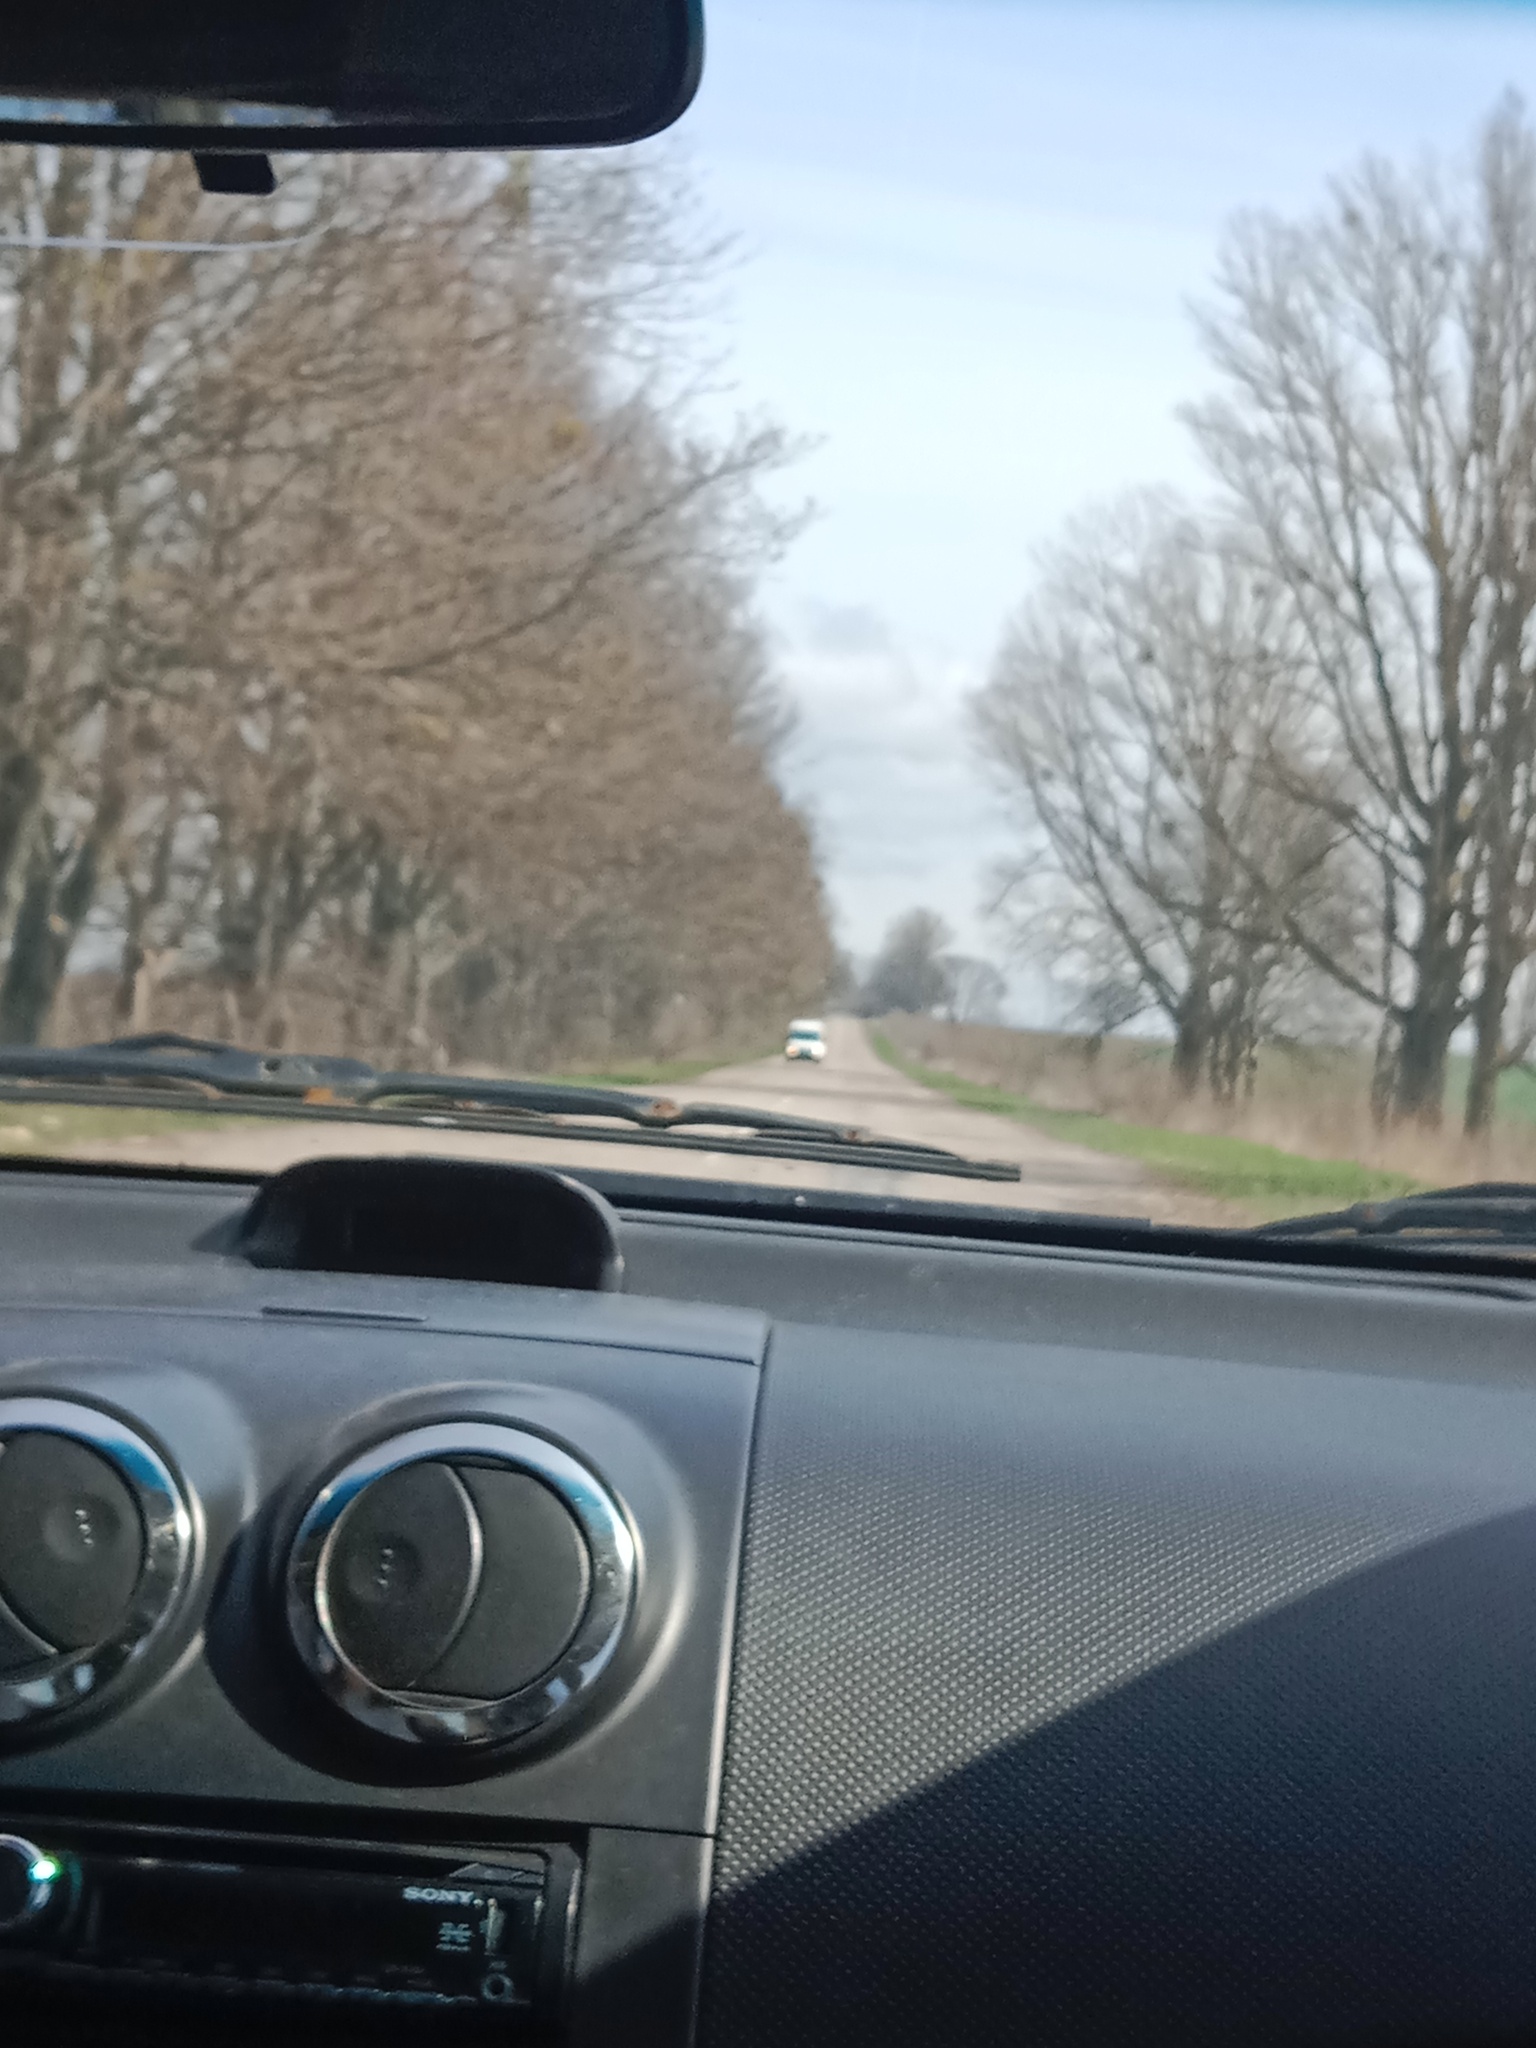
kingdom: Plantae
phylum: Tracheophyta
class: Magnoliopsida
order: Santalales
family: Viscaceae
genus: Viscum
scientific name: Viscum album
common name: Mistletoe
